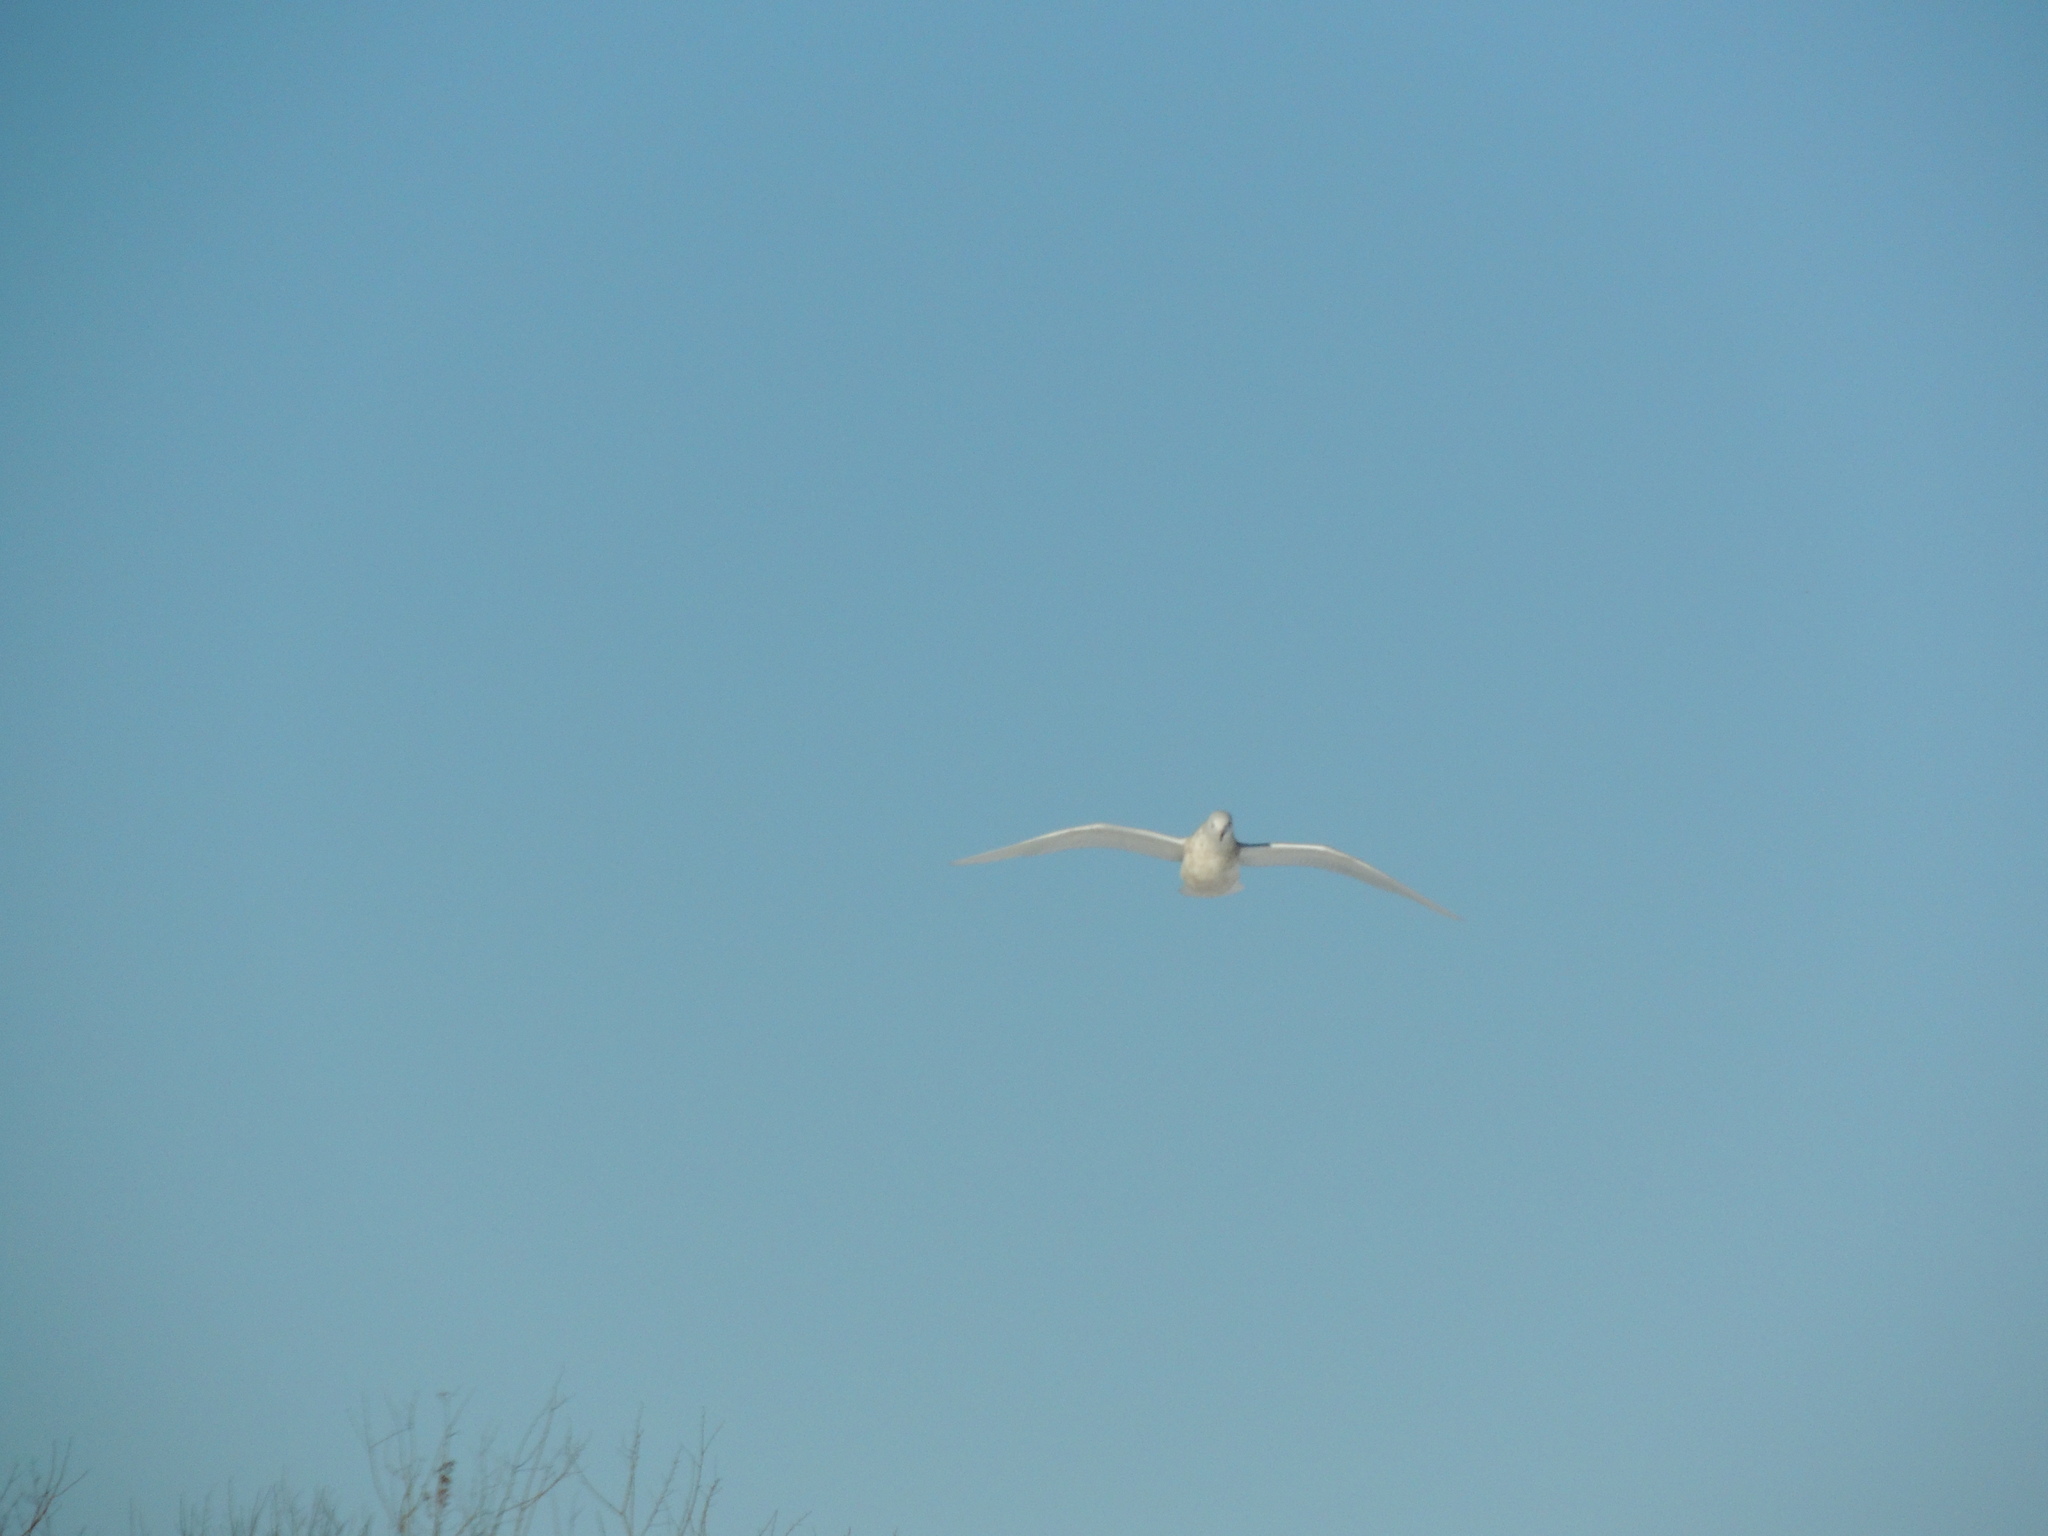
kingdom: Animalia
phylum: Chordata
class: Aves
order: Charadriiformes
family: Laridae
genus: Larus
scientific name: Larus hyperboreus
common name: Glaucous gull
